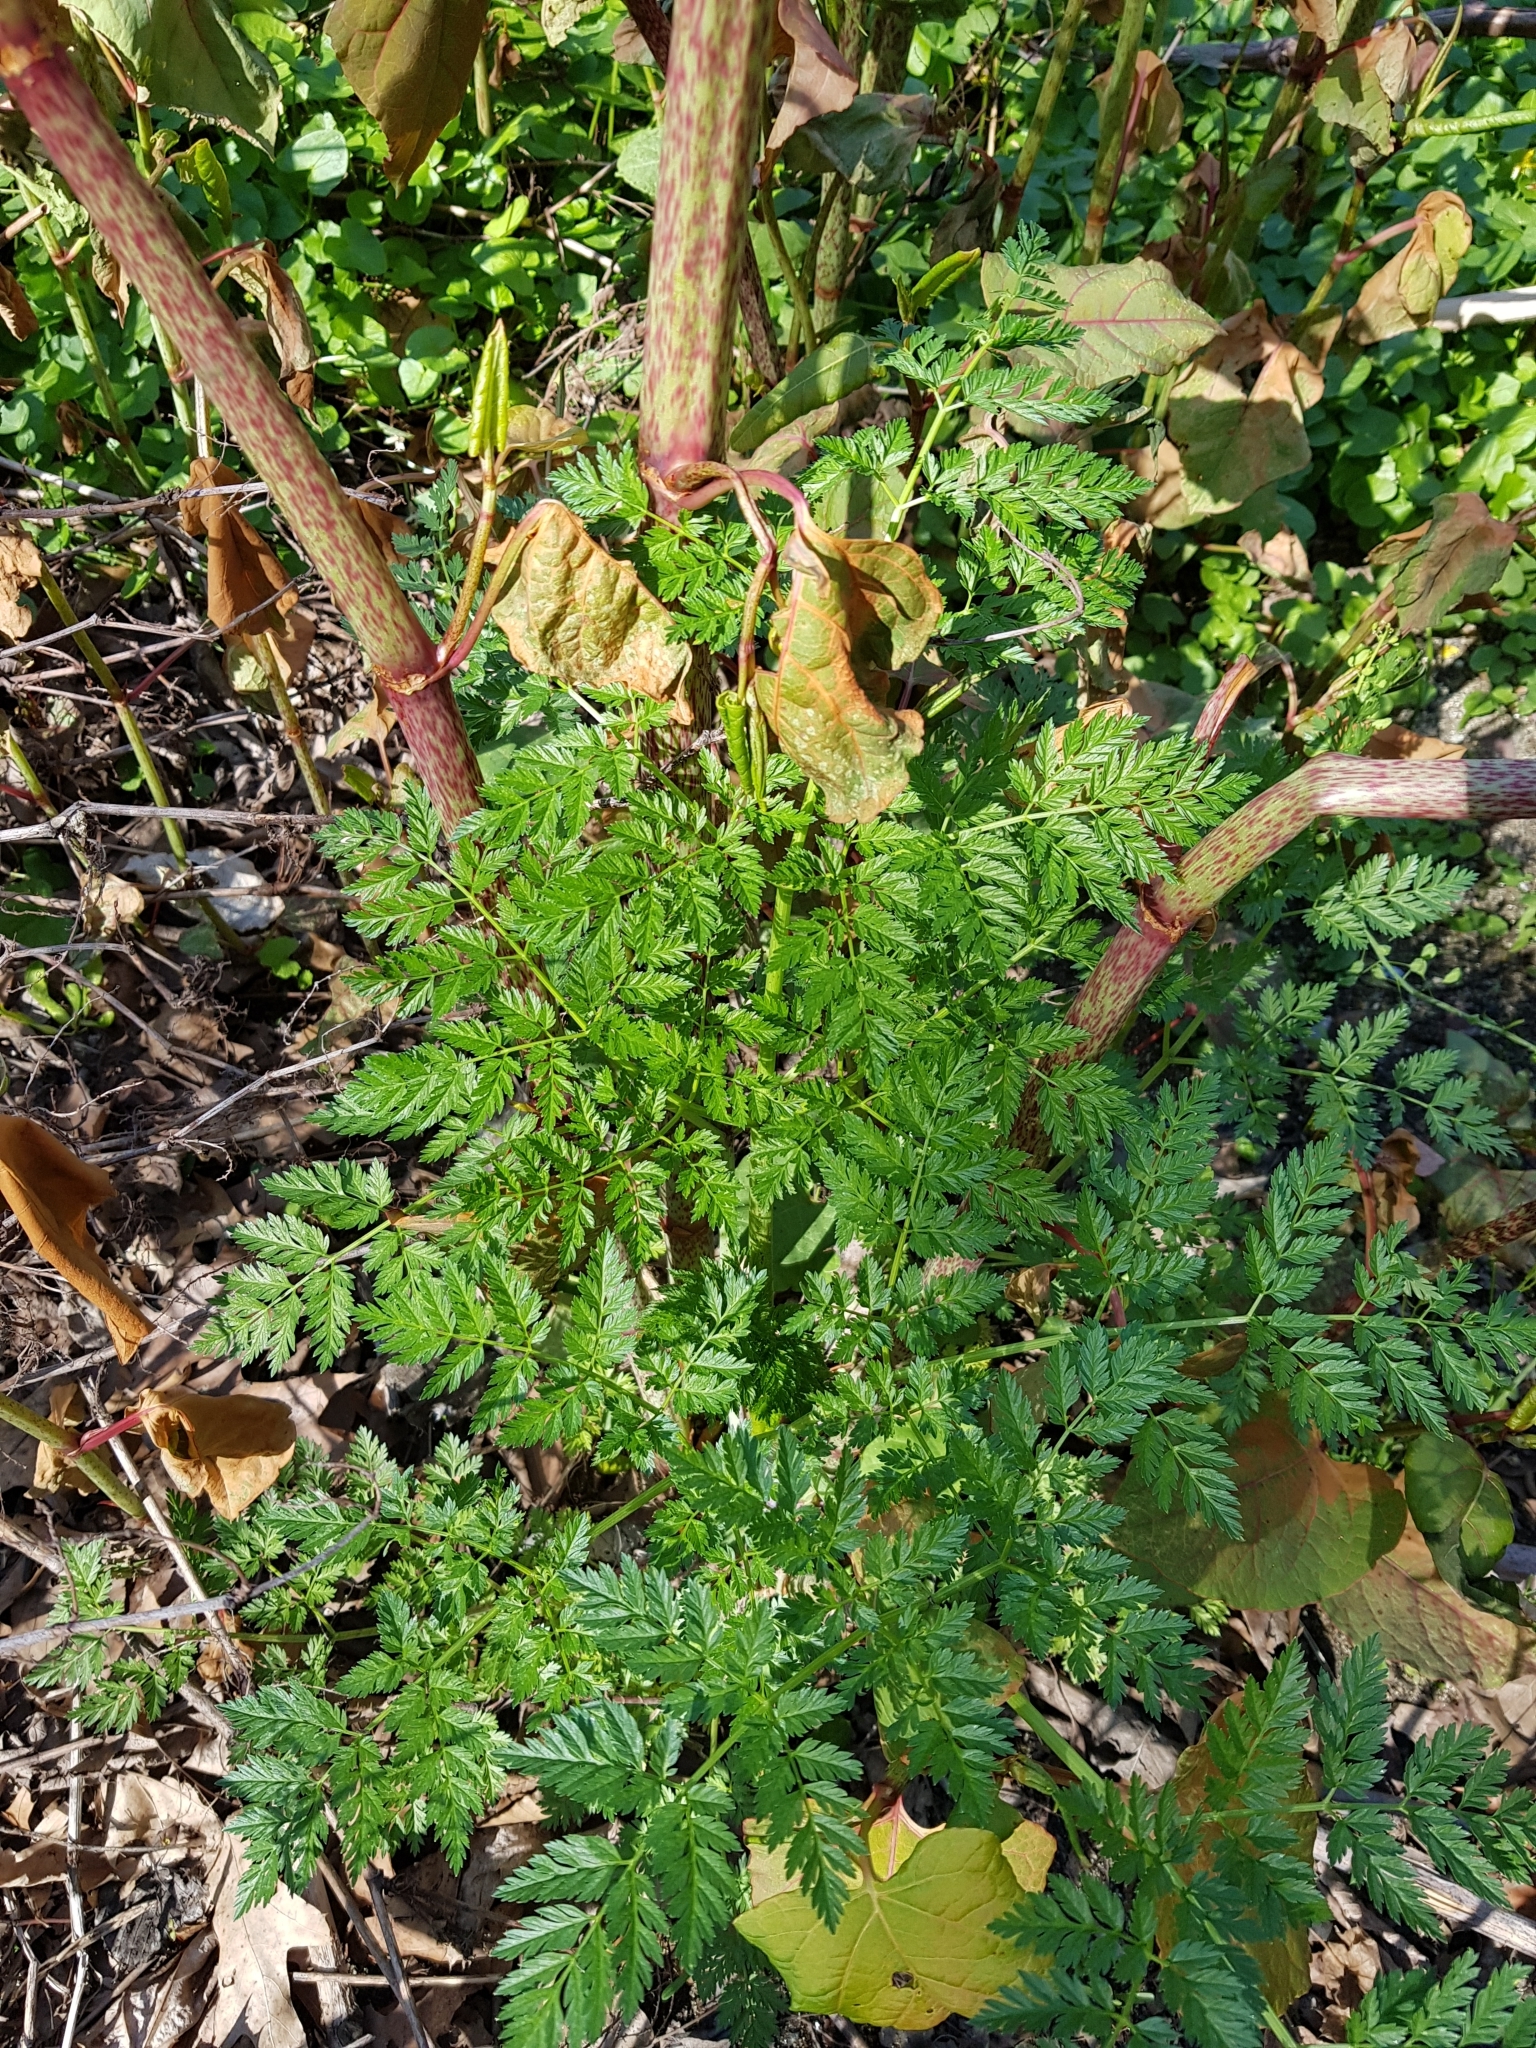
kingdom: Plantae
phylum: Tracheophyta
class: Magnoliopsida
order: Apiales
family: Apiaceae
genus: Conium
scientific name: Conium maculatum
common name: Hemlock
